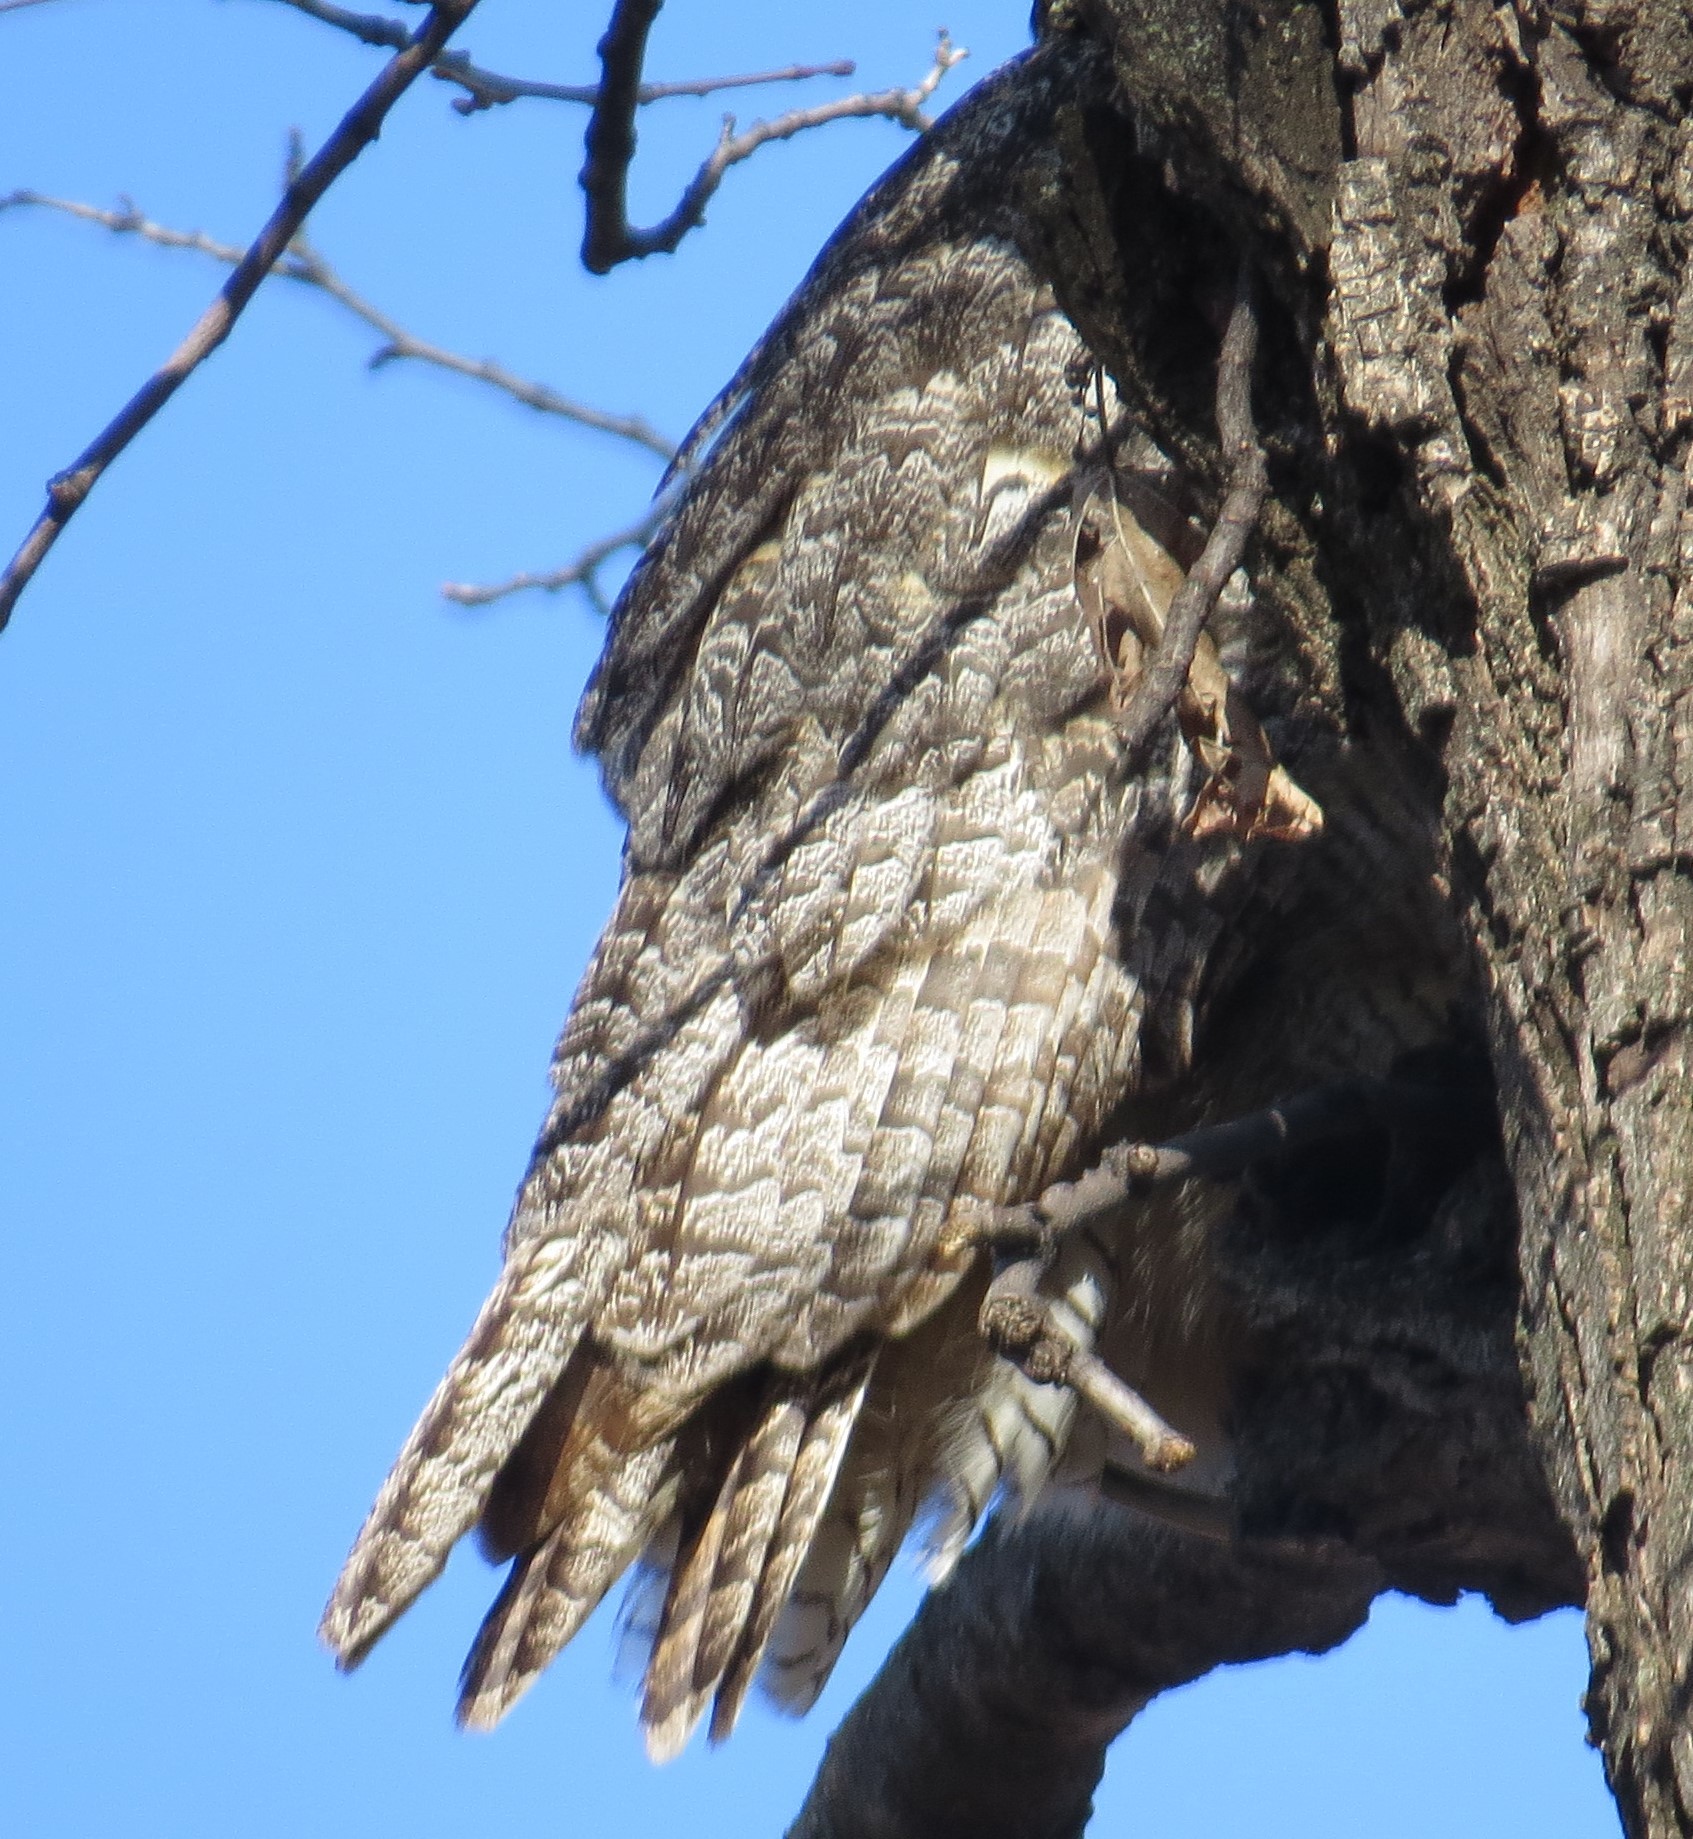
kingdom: Animalia
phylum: Chordata
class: Aves
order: Strigiformes
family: Strigidae
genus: Bubo
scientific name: Bubo virginianus
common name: Great horned owl
